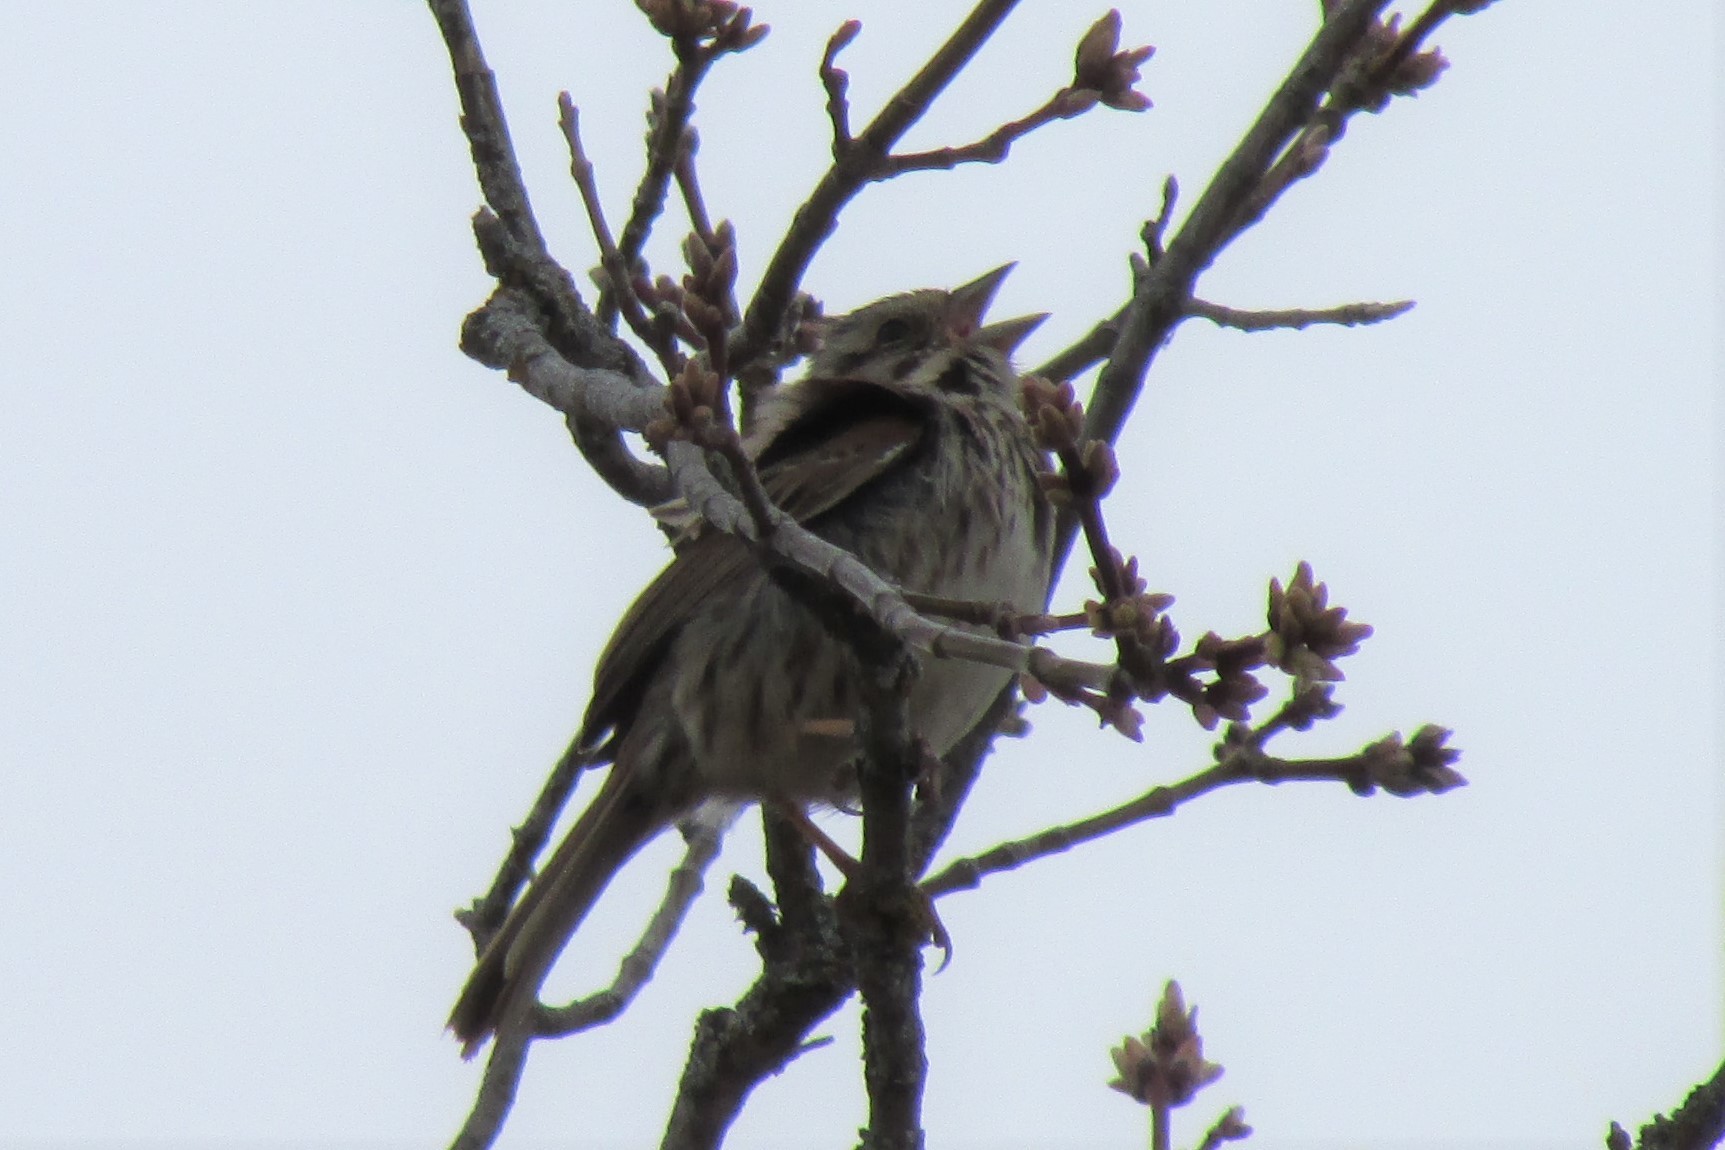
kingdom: Animalia
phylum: Chordata
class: Aves
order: Passeriformes
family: Passerellidae
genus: Melospiza
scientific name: Melospiza melodia
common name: Song sparrow
